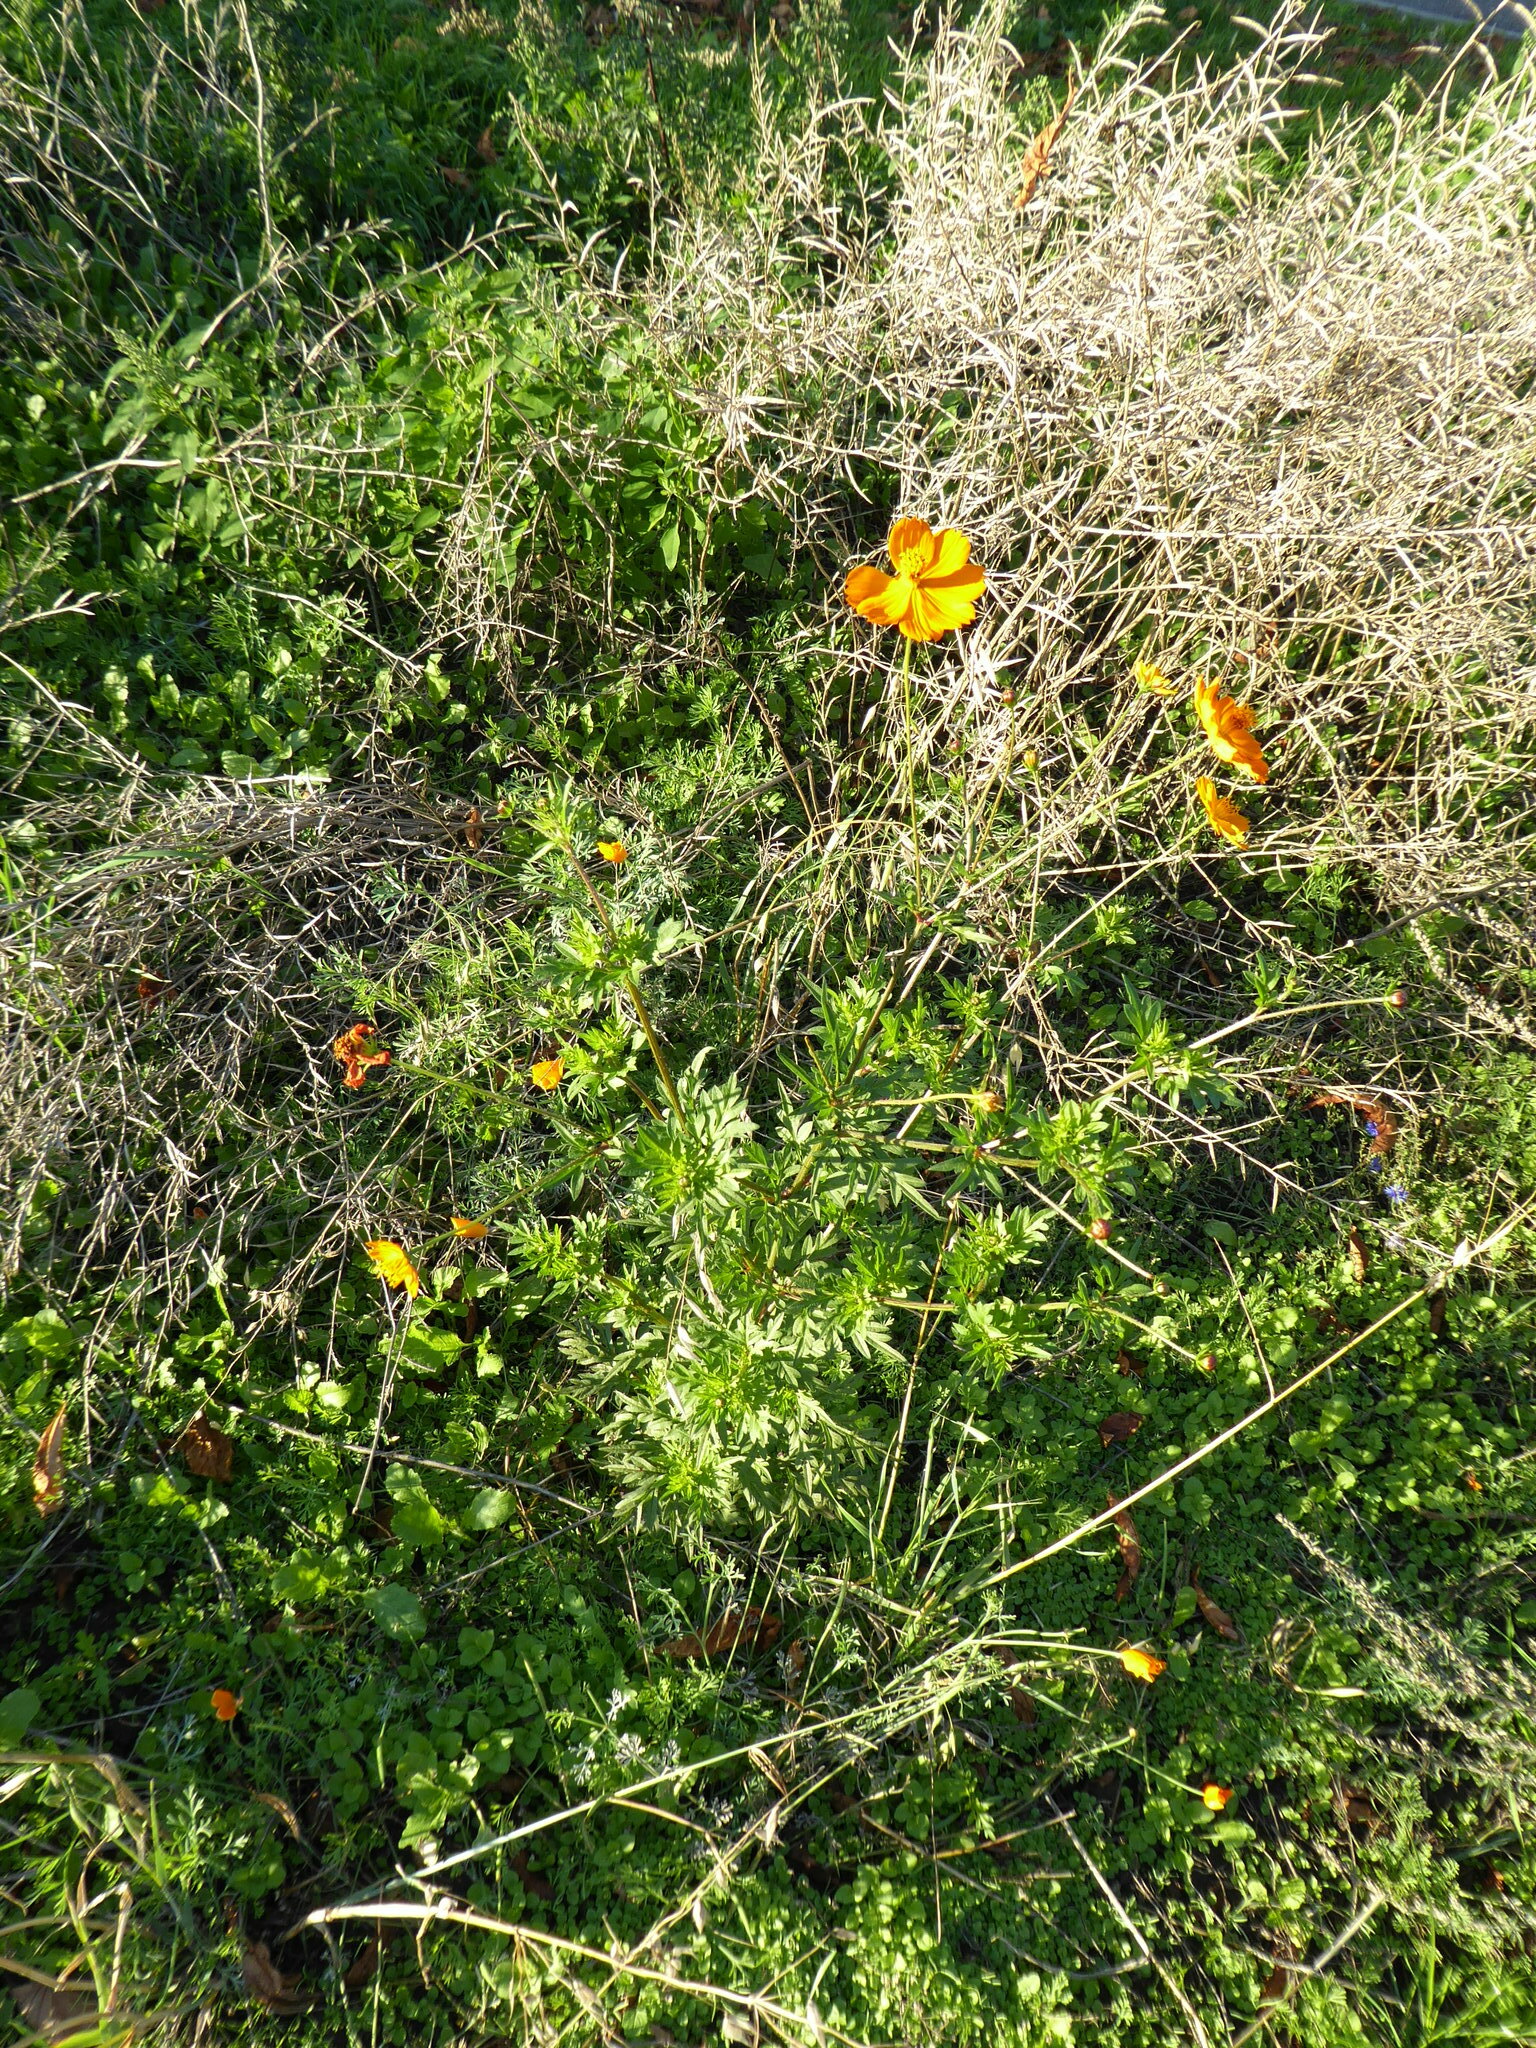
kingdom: Plantae
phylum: Tracheophyta
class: Magnoliopsida
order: Asterales
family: Asteraceae
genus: Cosmos
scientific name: Cosmos sulphureus
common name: Sulphur cosmos
